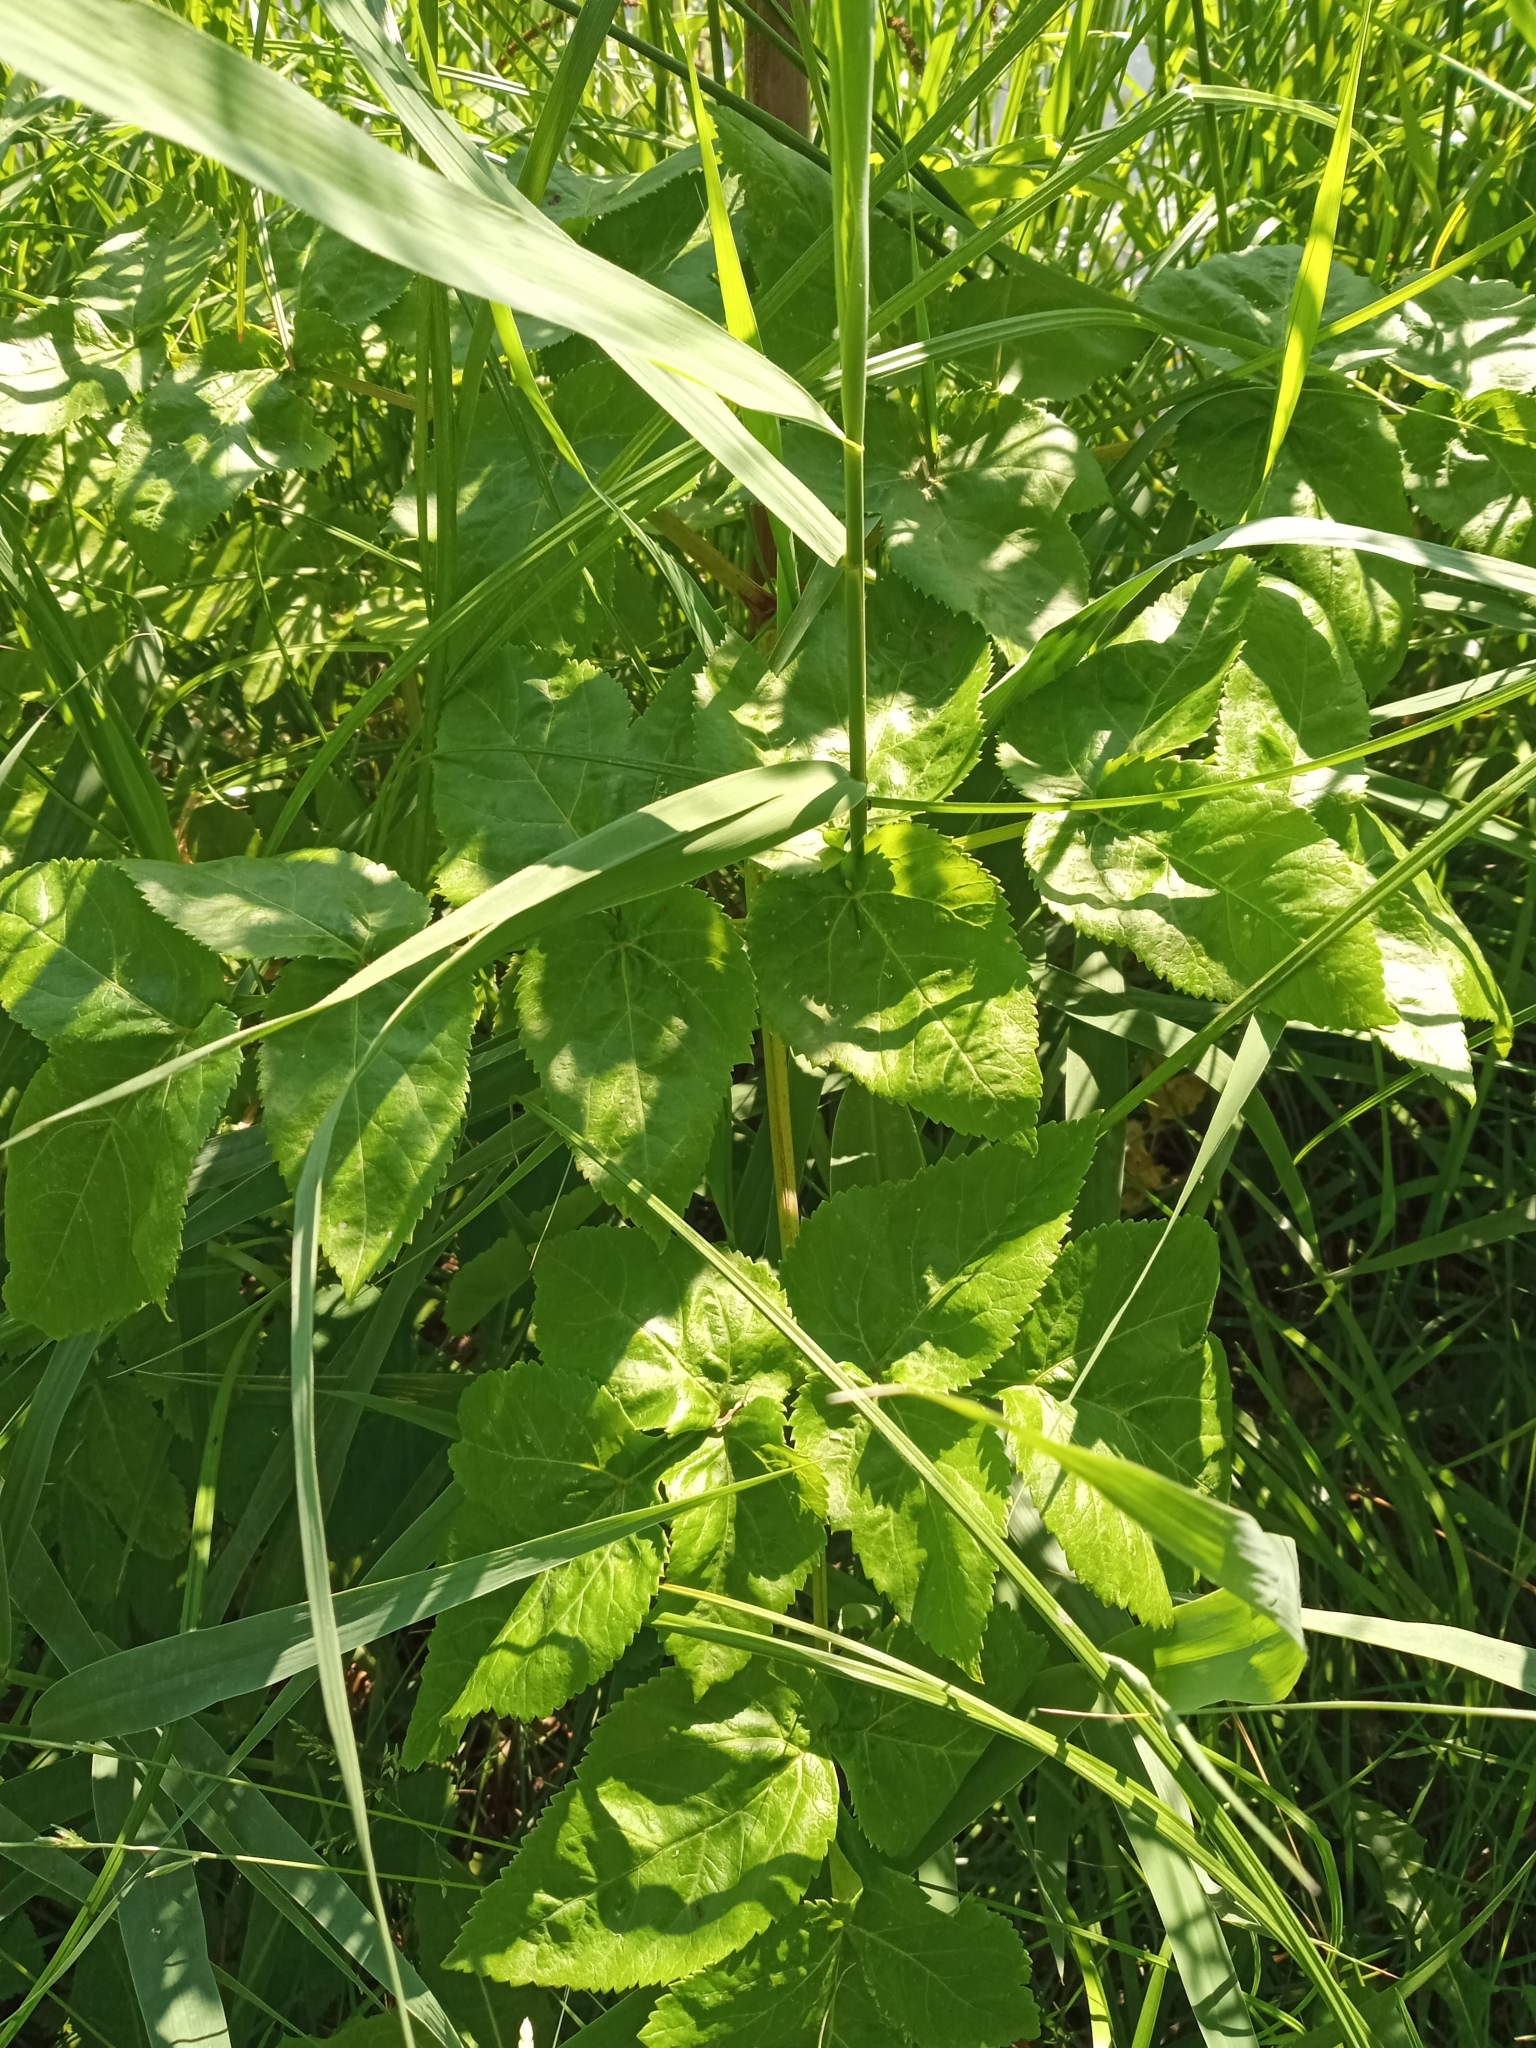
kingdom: Plantae
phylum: Tracheophyta
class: Magnoliopsida
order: Apiales
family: Apiaceae
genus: Angelica
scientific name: Angelica archangelica
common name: Garden angelica
